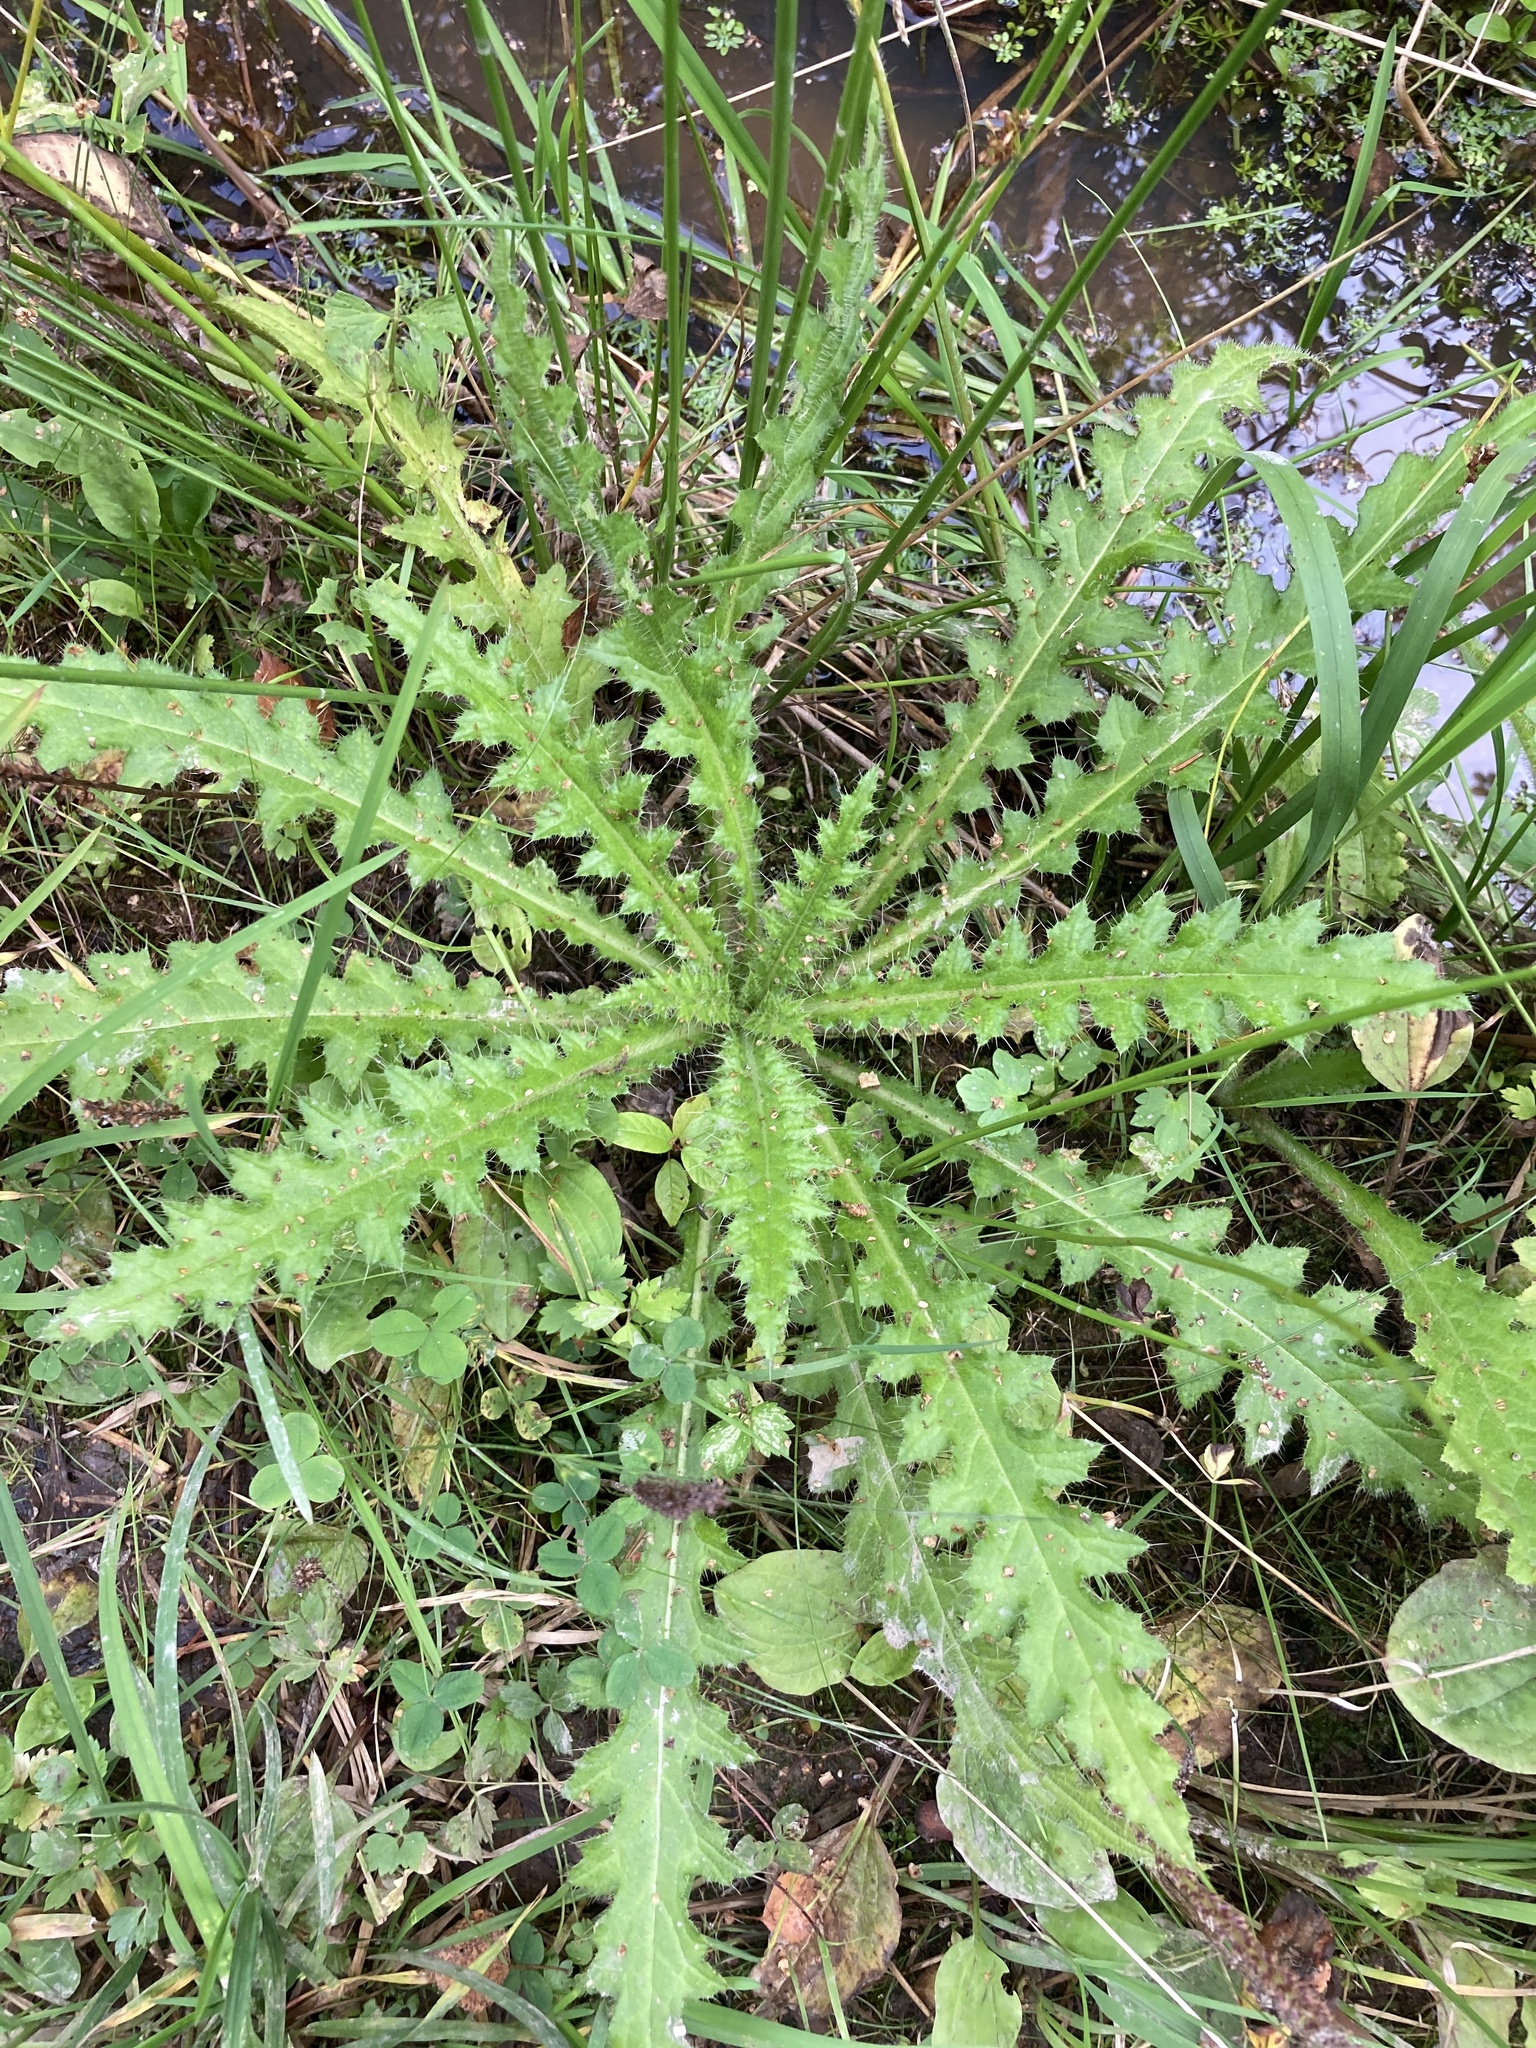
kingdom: Plantae
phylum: Tracheophyta
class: Magnoliopsida
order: Asterales
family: Asteraceae
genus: Cirsium
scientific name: Cirsium palustre
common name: Marsh thistle
